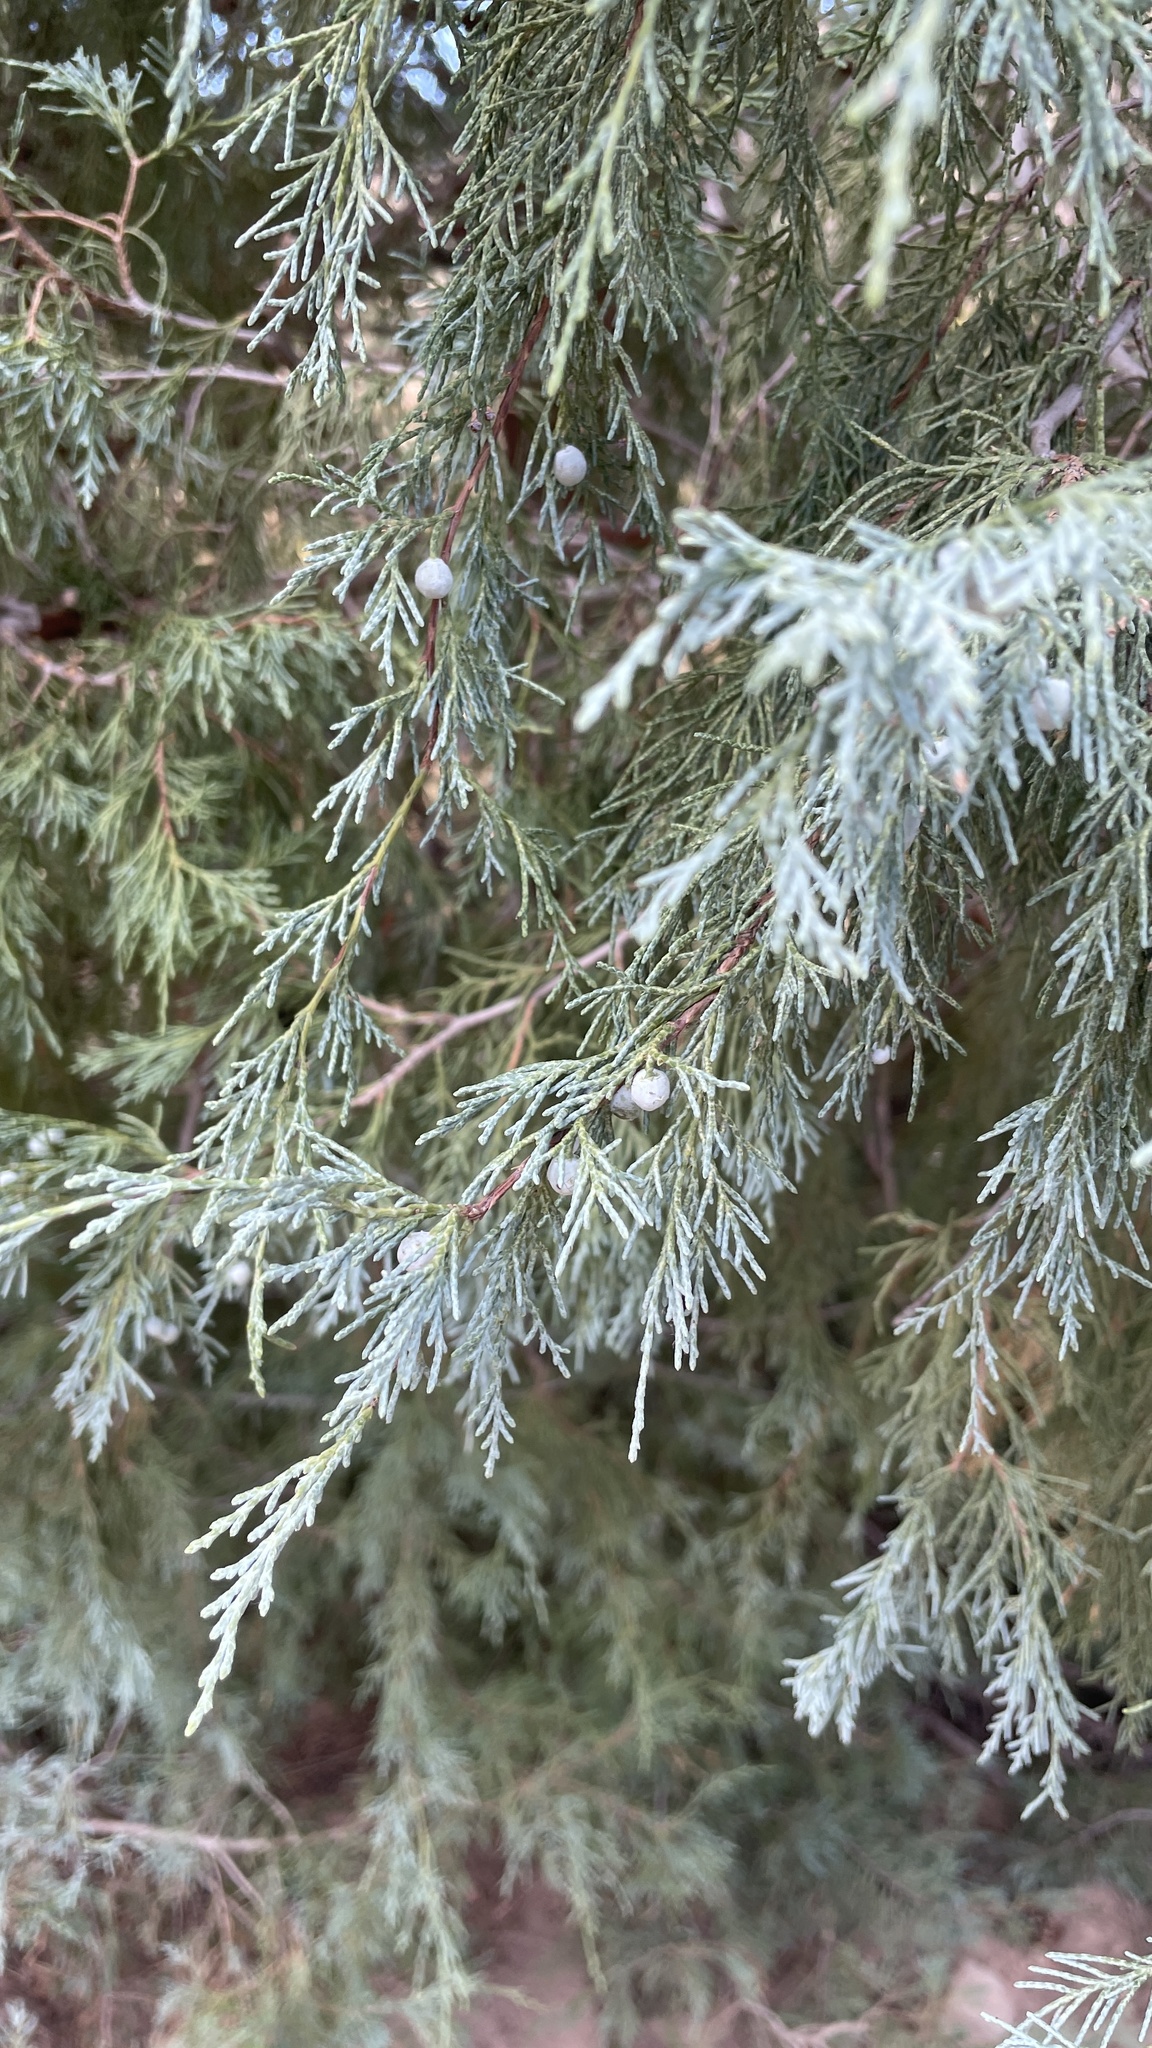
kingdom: Plantae
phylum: Tracheophyta
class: Pinopsida
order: Pinales
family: Cupressaceae
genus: Juniperus
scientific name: Juniperus scopulorum
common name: Rocky mountain juniper
